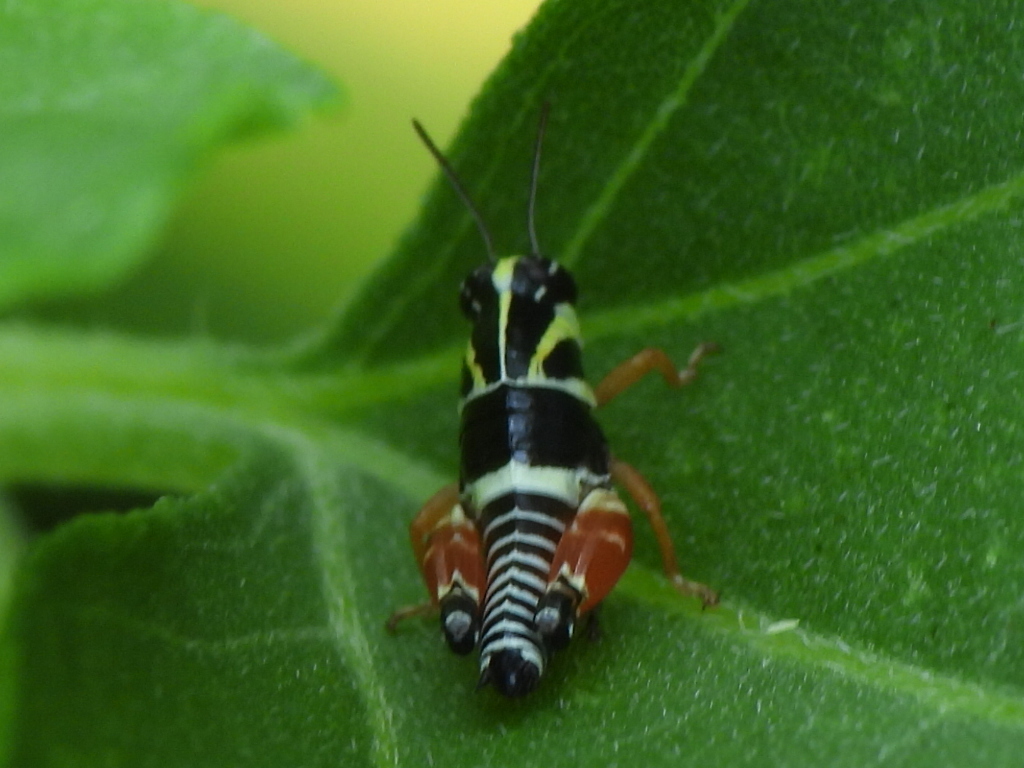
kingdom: Animalia
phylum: Arthropoda
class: Insecta
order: Orthoptera
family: Acrididae
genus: Aidemona
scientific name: Aidemona azteca
